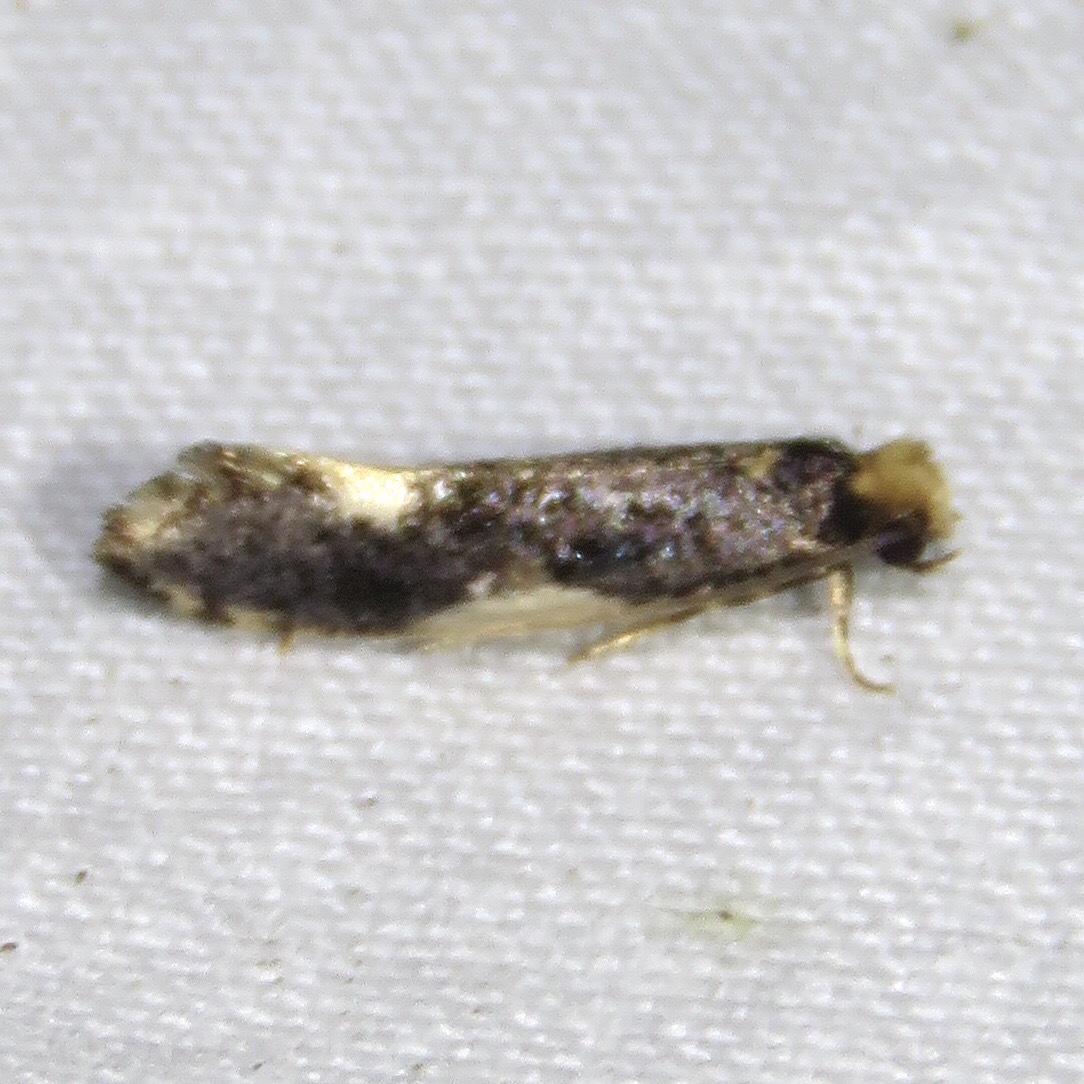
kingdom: Animalia
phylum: Arthropoda
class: Insecta
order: Lepidoptera
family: Tineidae
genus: Monopis
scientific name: Monopis spilotella
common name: Orange-headed monopis
